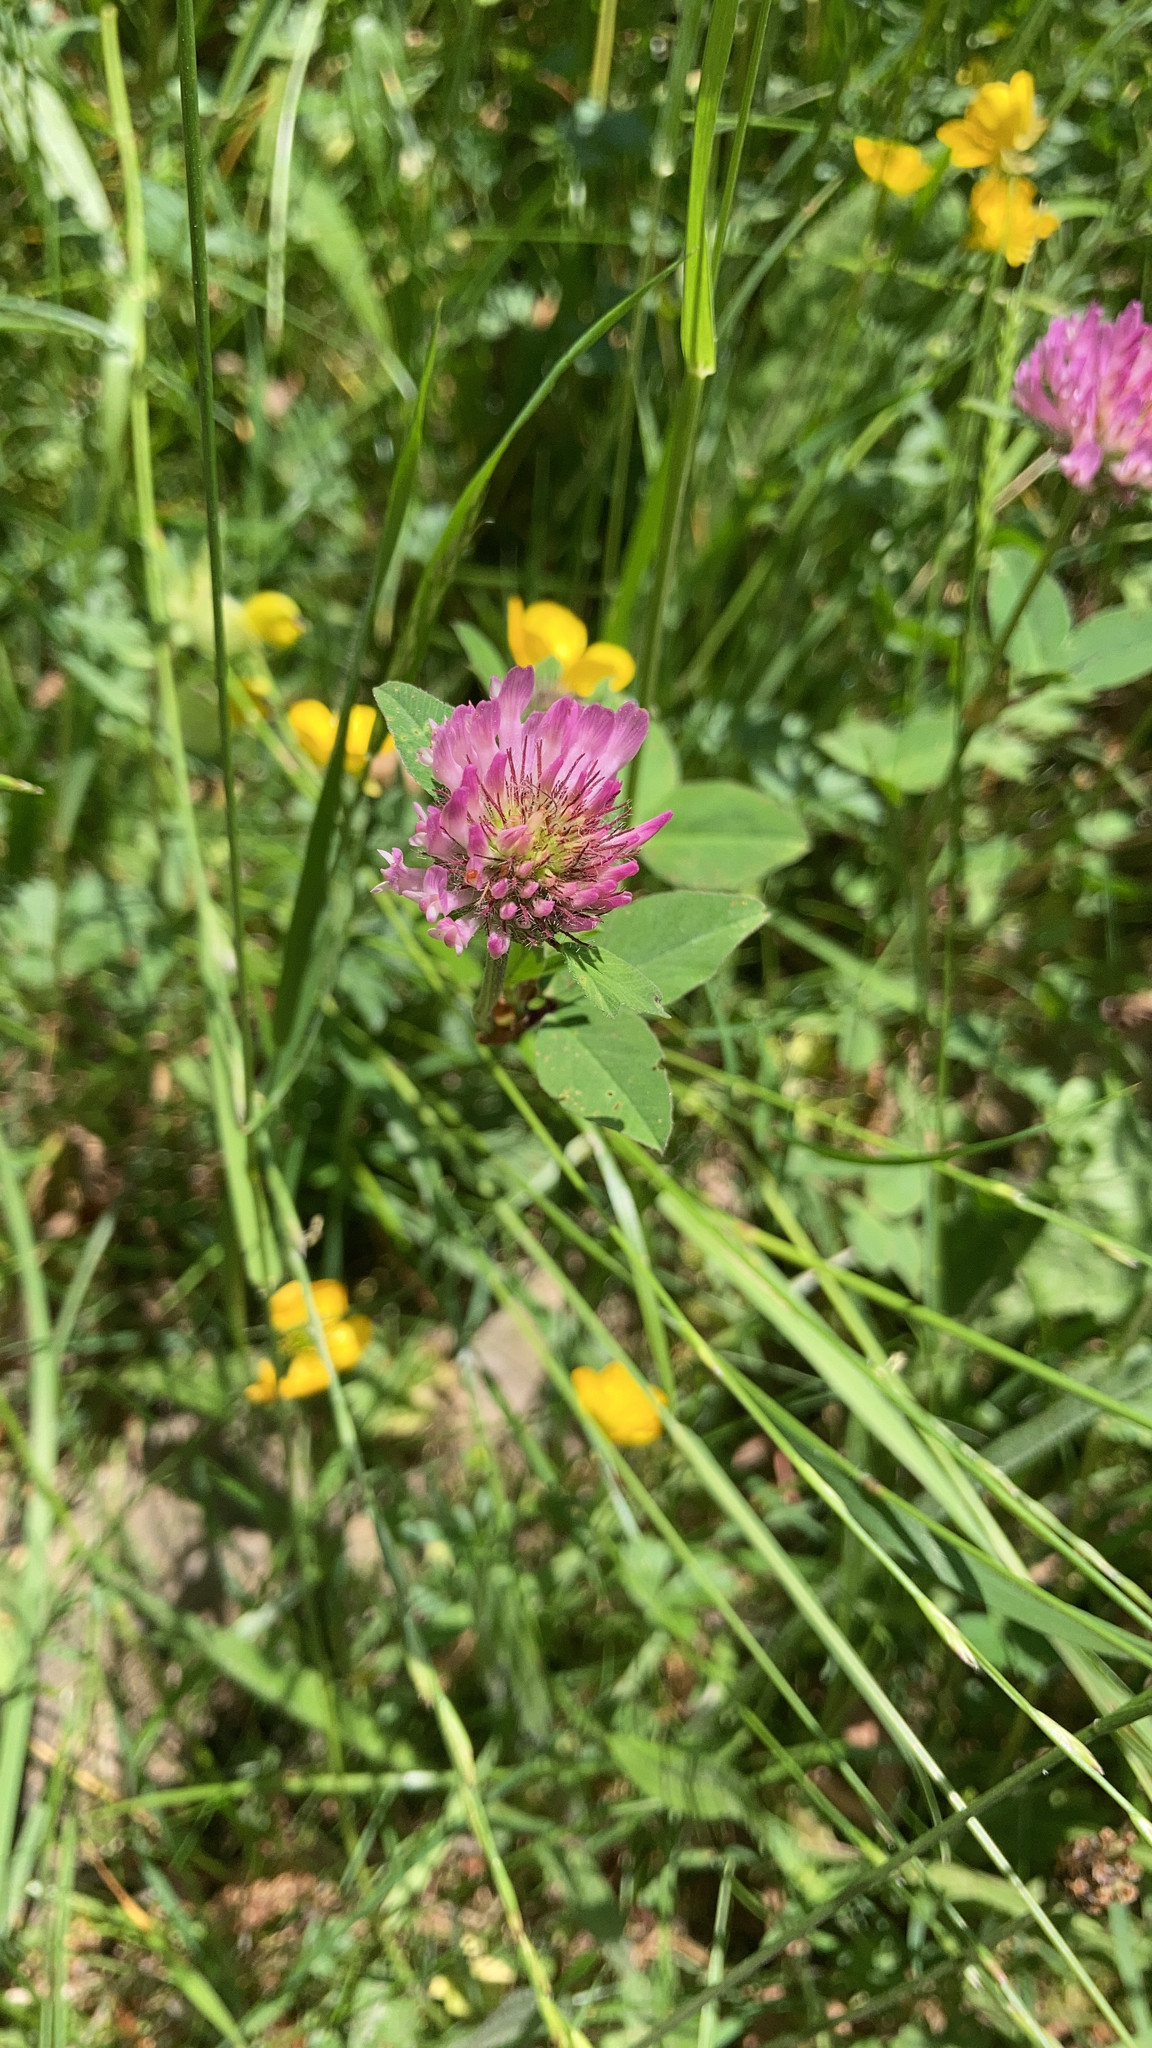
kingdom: Plantae
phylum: Tracheophyta
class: Magnoliopsida
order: Fabales
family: Fabaceae
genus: Trifolium
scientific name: Trifolium pratense
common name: Red clover
